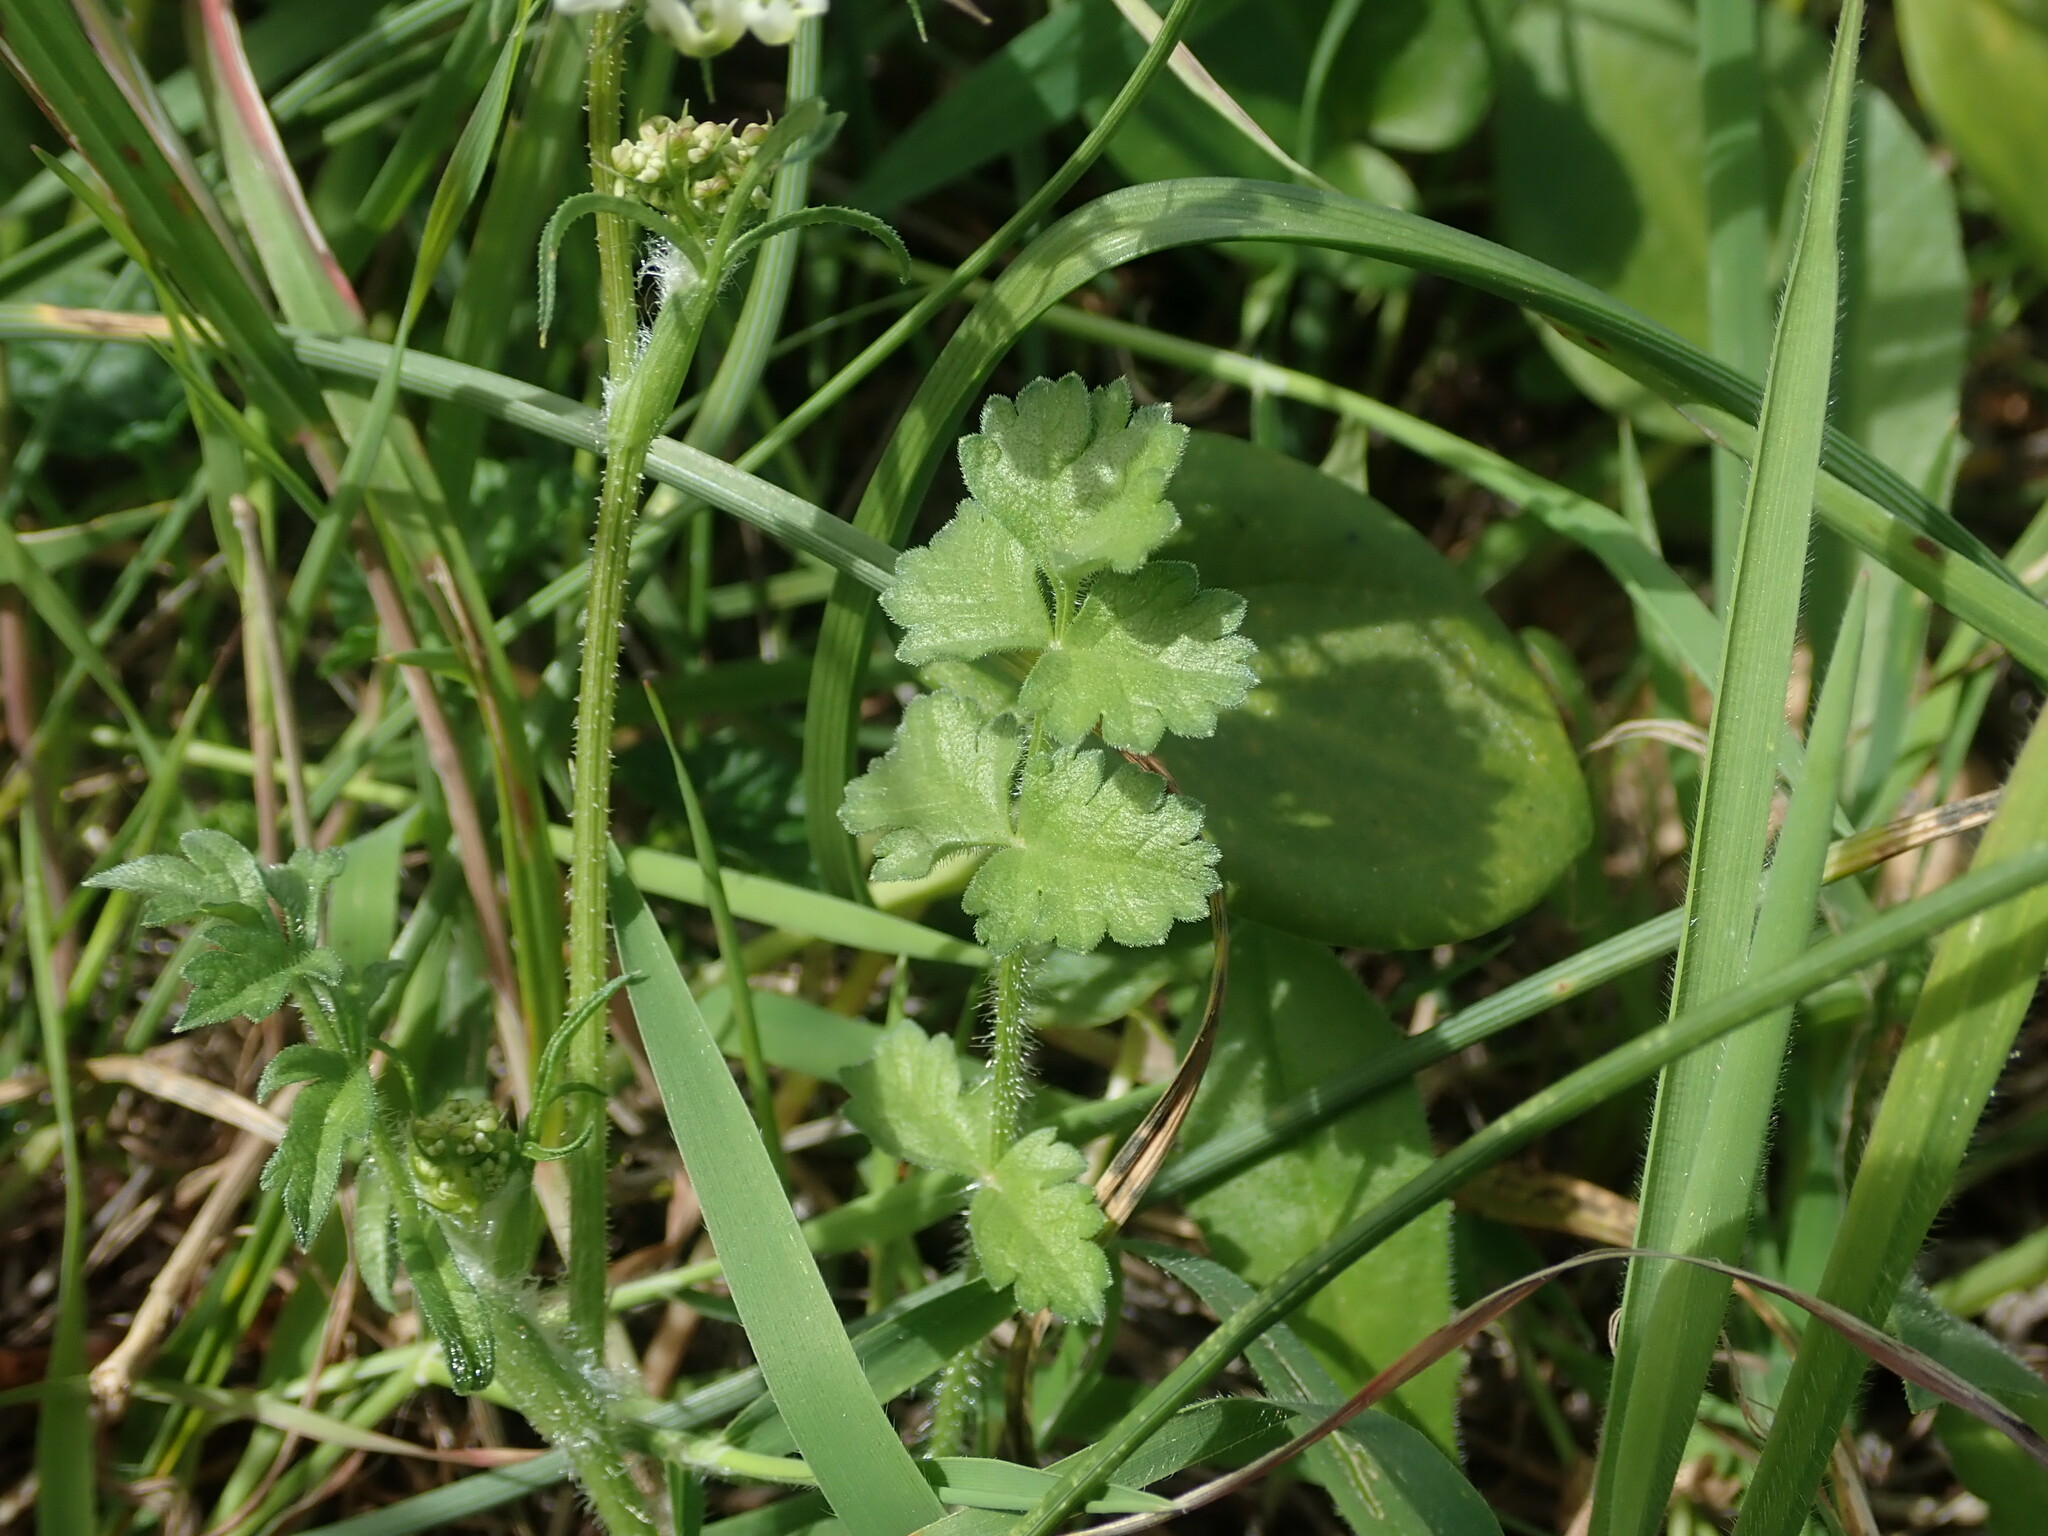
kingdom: Plantae
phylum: Tracheophyta
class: Magnoliopsida
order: Apiales
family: Apiaceae
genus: Tordylium
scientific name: Tordylium apulum
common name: Mediterranean hartwort
